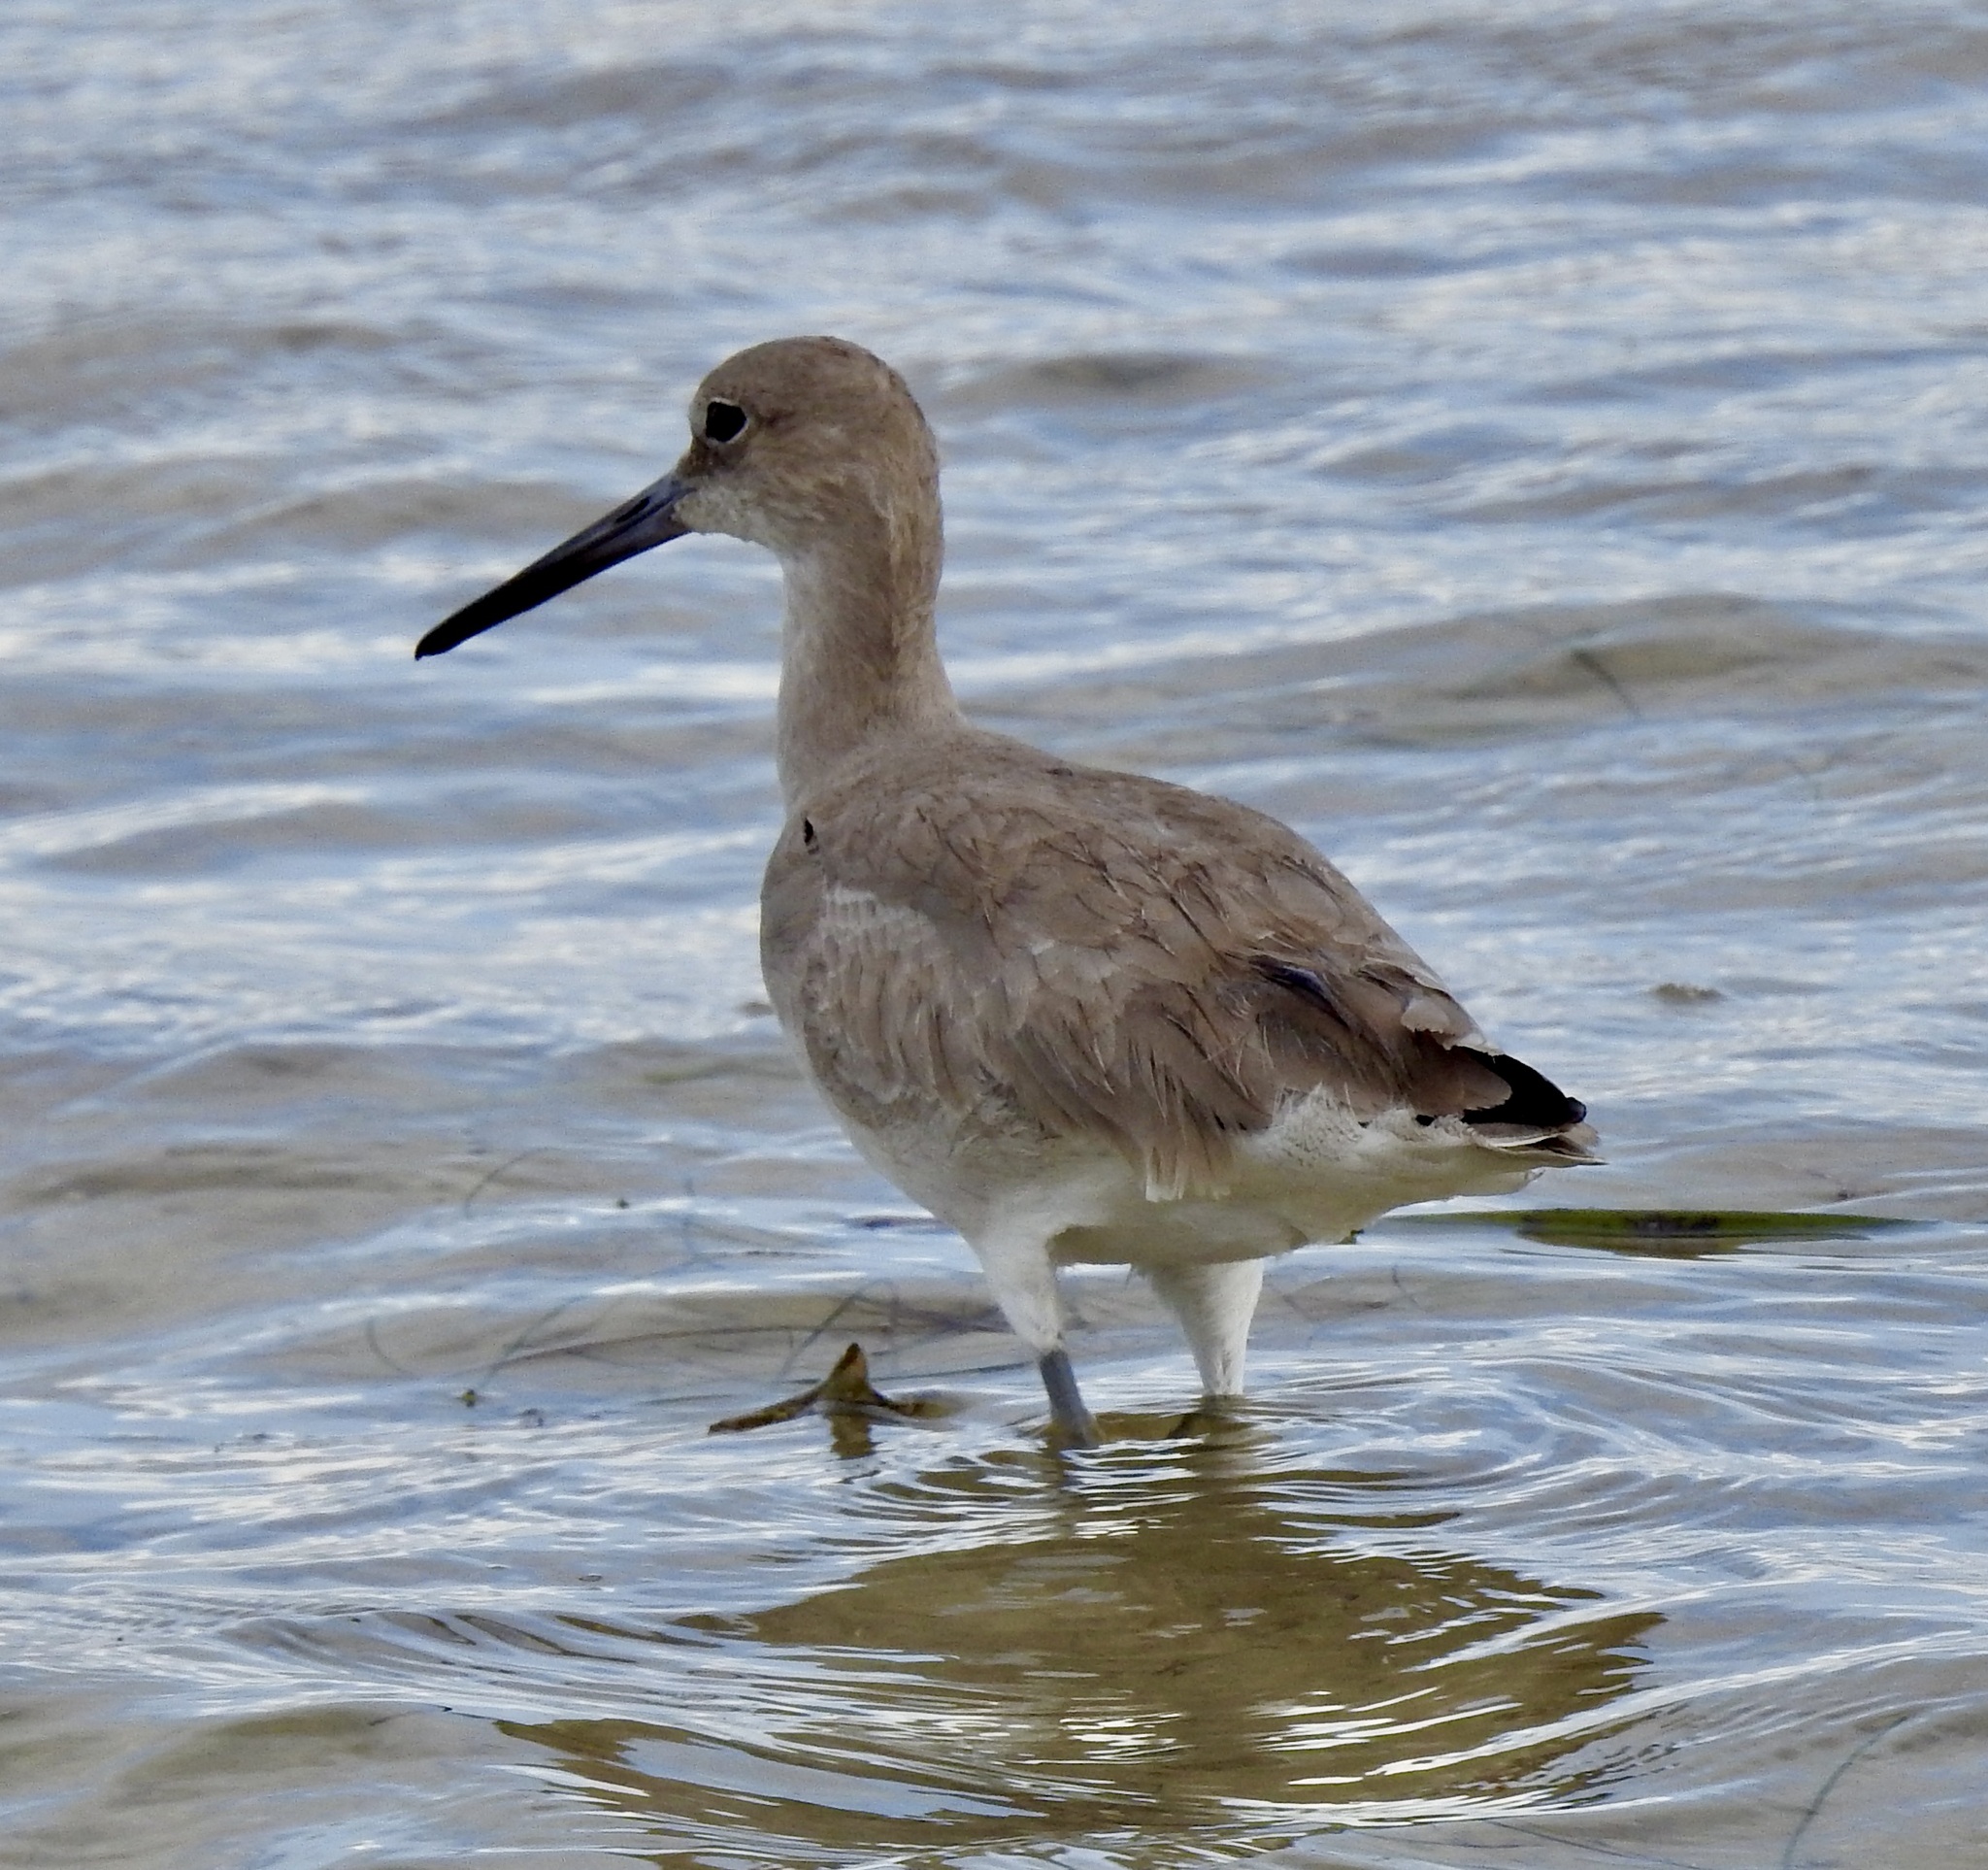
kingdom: Animalia
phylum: Chordata
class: Aves
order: Charadriiformes
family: Scolopacidae
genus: Tringa
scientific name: Tringa semipalmata
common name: Willet
